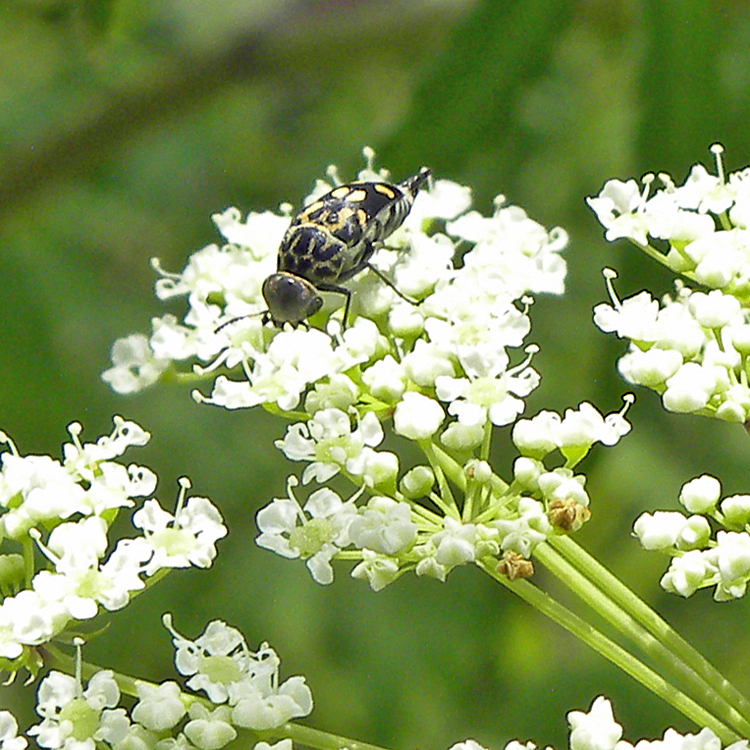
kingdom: Animalia
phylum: Arthropoda
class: Insecta
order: Coleoptera
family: Mordellidae
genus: Hoshihananomia
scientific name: Hoshihananomia octopunctata
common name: Eight-spotted tumbling flower beetle
